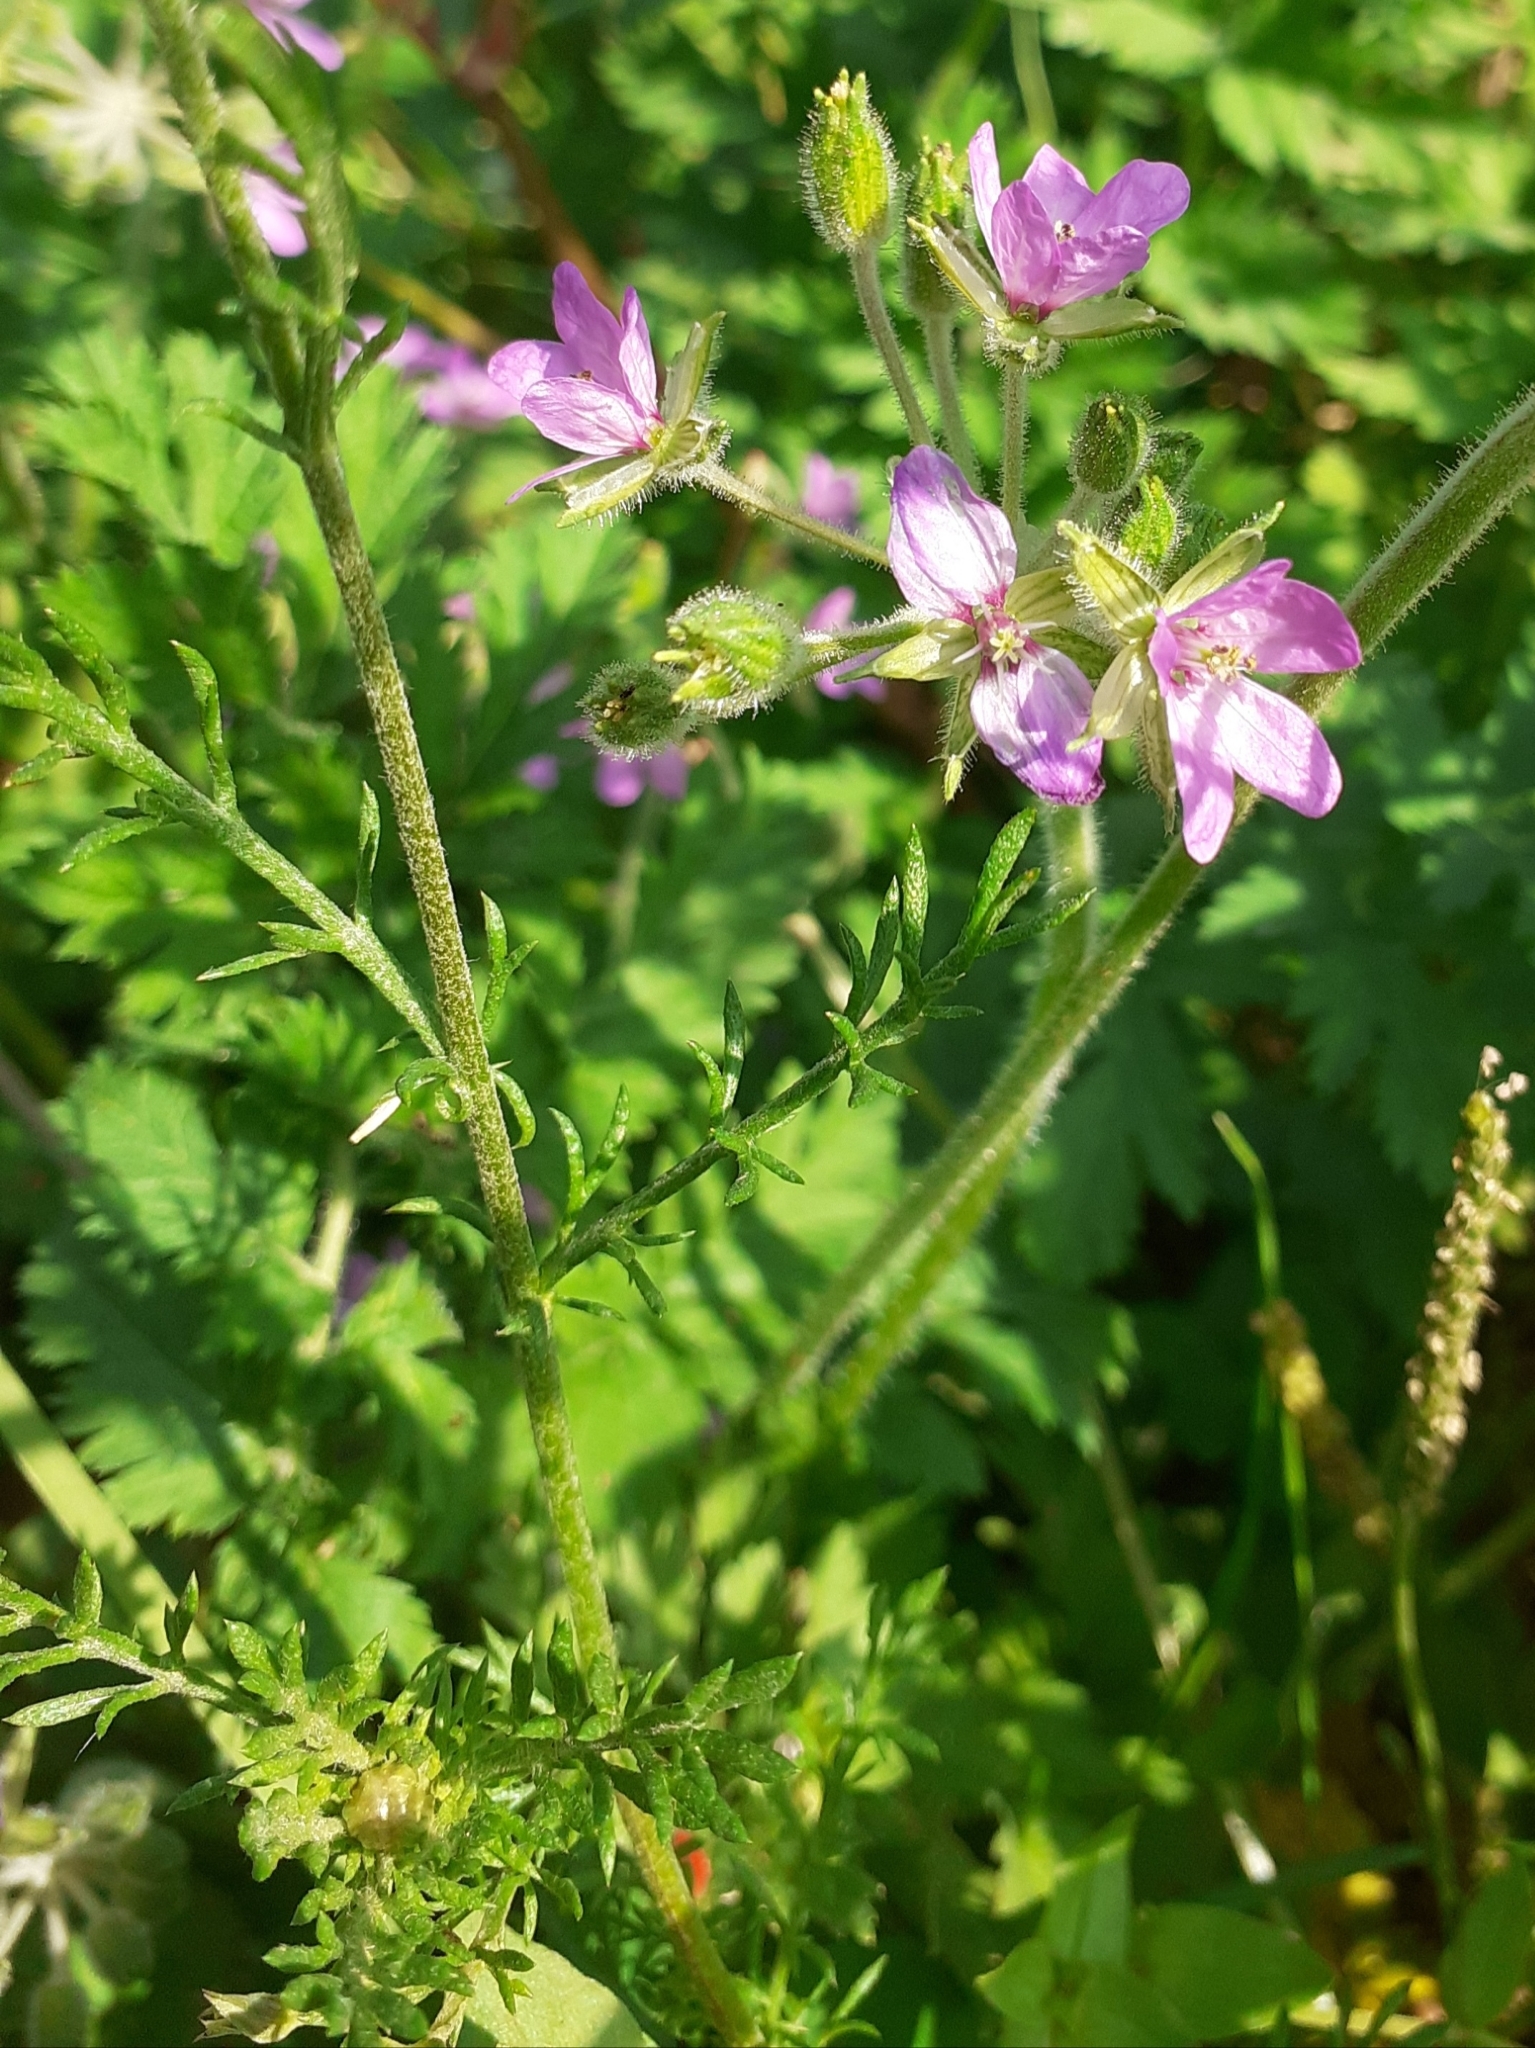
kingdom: Plantae
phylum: Tracheophyta
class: Magnoliopsida
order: Geraniales
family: Geraniaceae
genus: Erodium
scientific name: Erodium moschatum
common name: Musk stork's-bill
